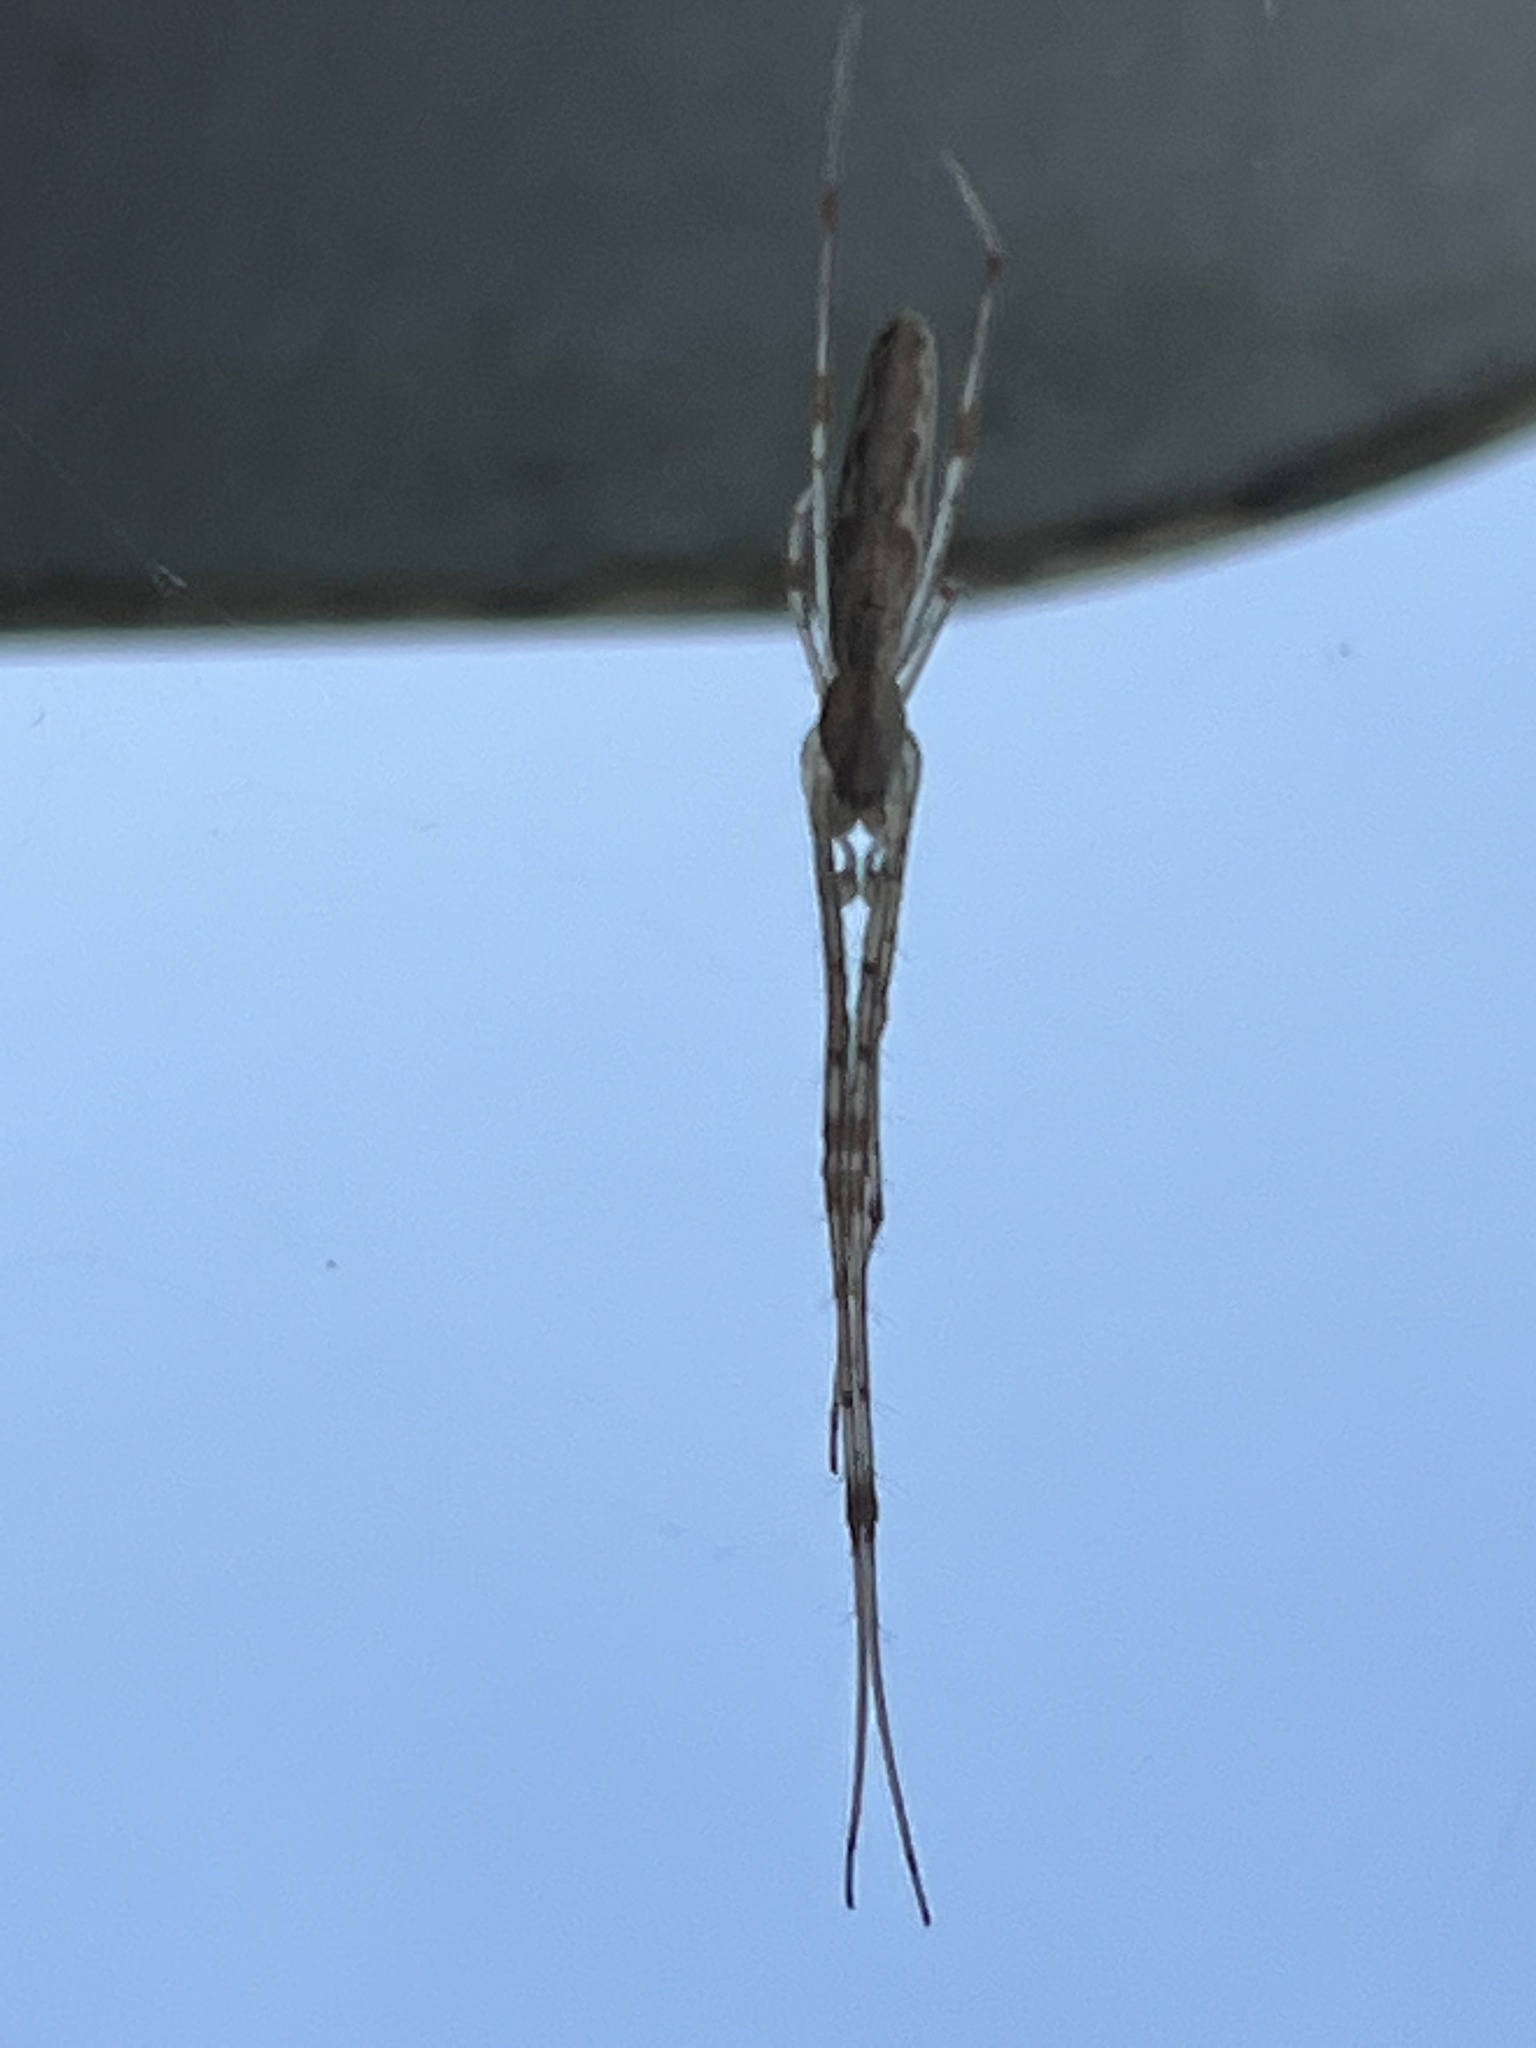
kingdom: Animalia
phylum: Arthropoda
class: Arachnida
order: Araneae
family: Tetragnathidae
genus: Tetragnatha
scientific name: Tetragnatha
